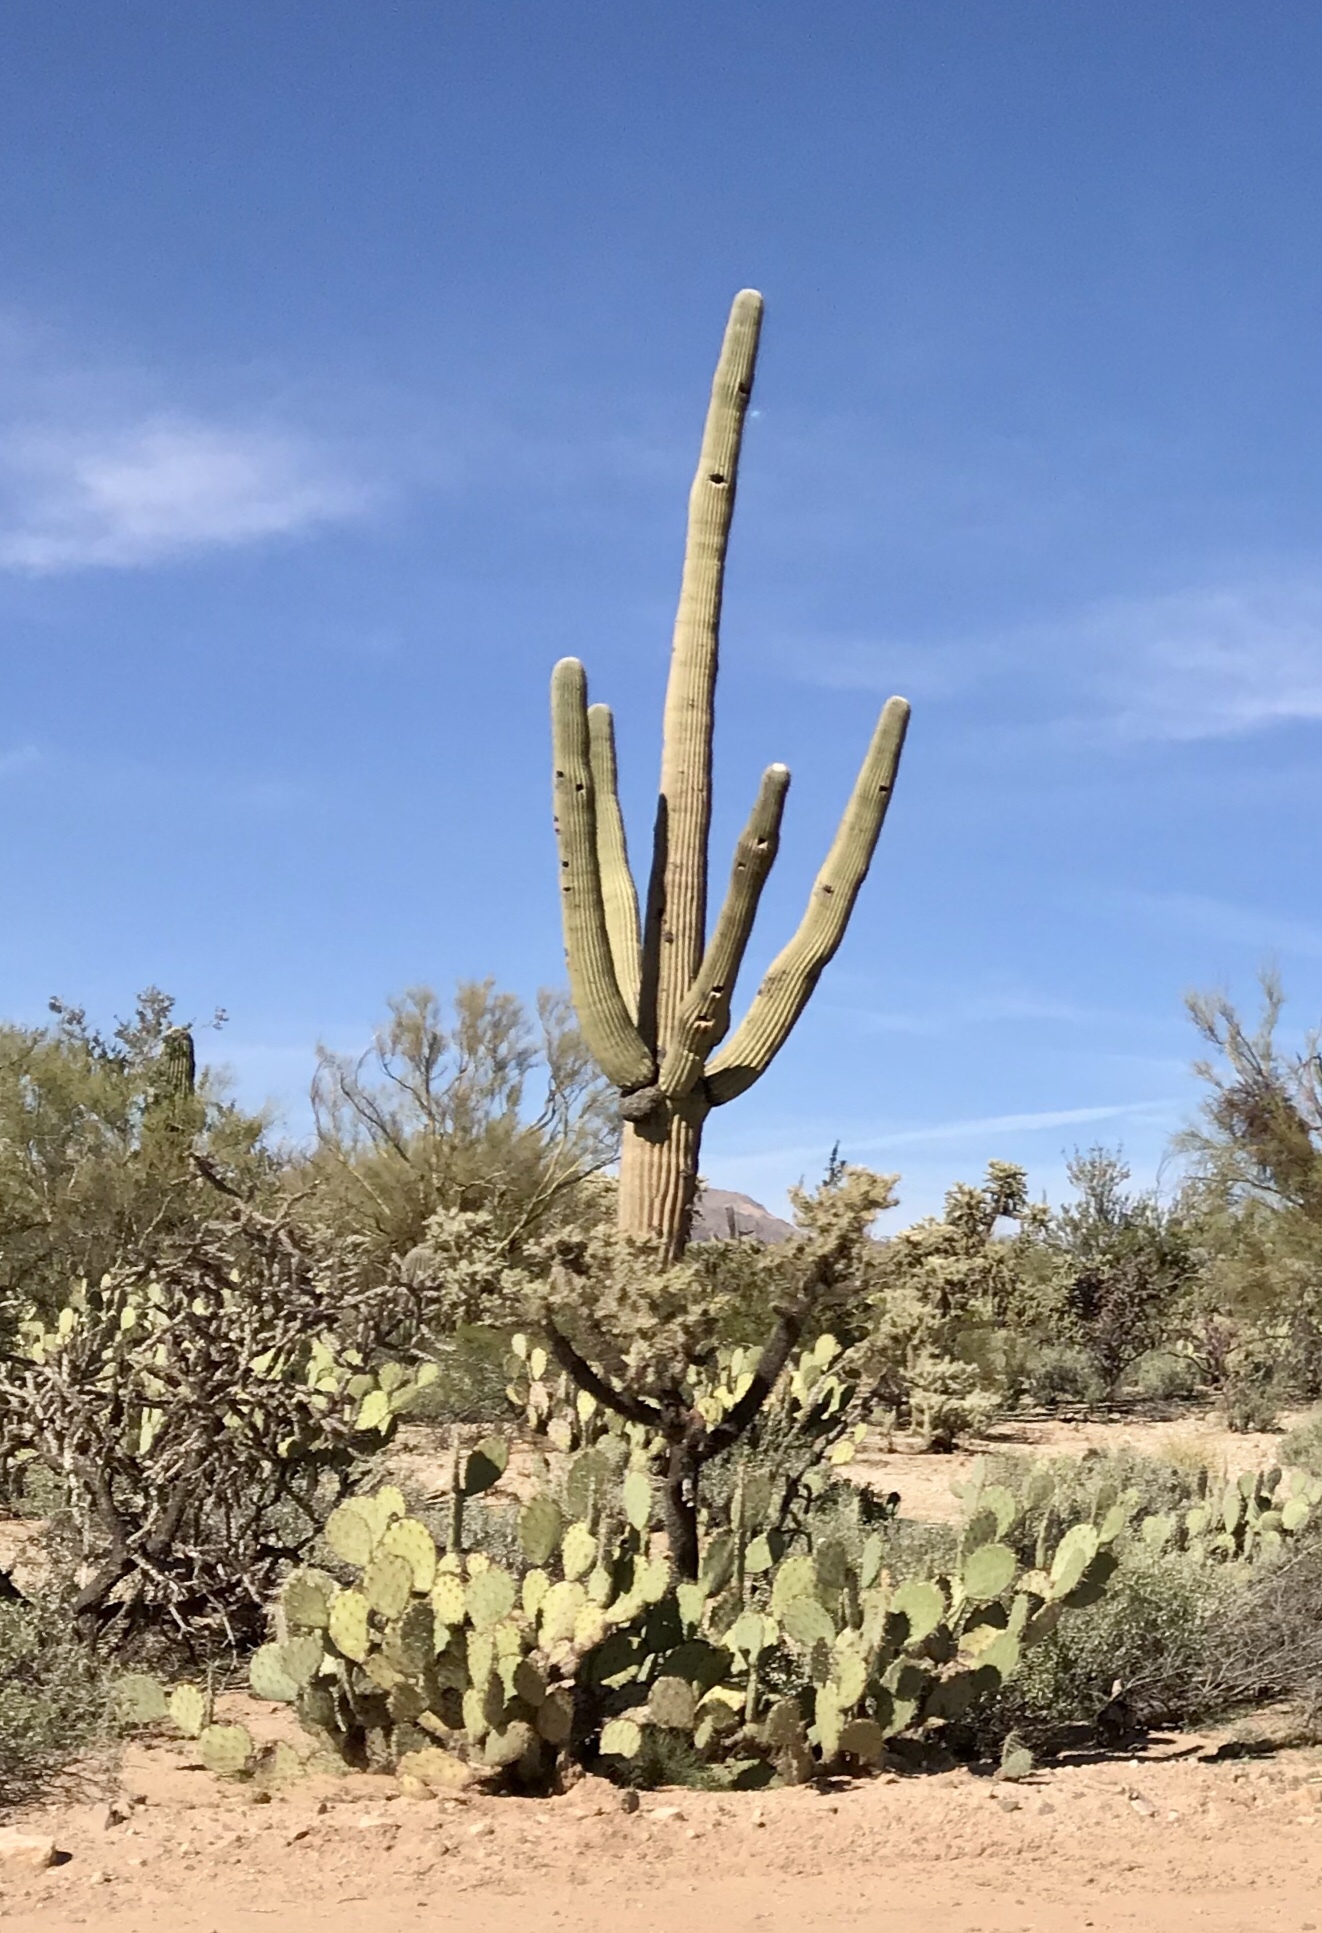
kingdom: Plantae
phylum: Tracheophyta
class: Magnoliopsida
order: Caryophyllales
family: Cactaceae
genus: Carnegiea
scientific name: Carnegiea gigantea
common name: Saguaro
